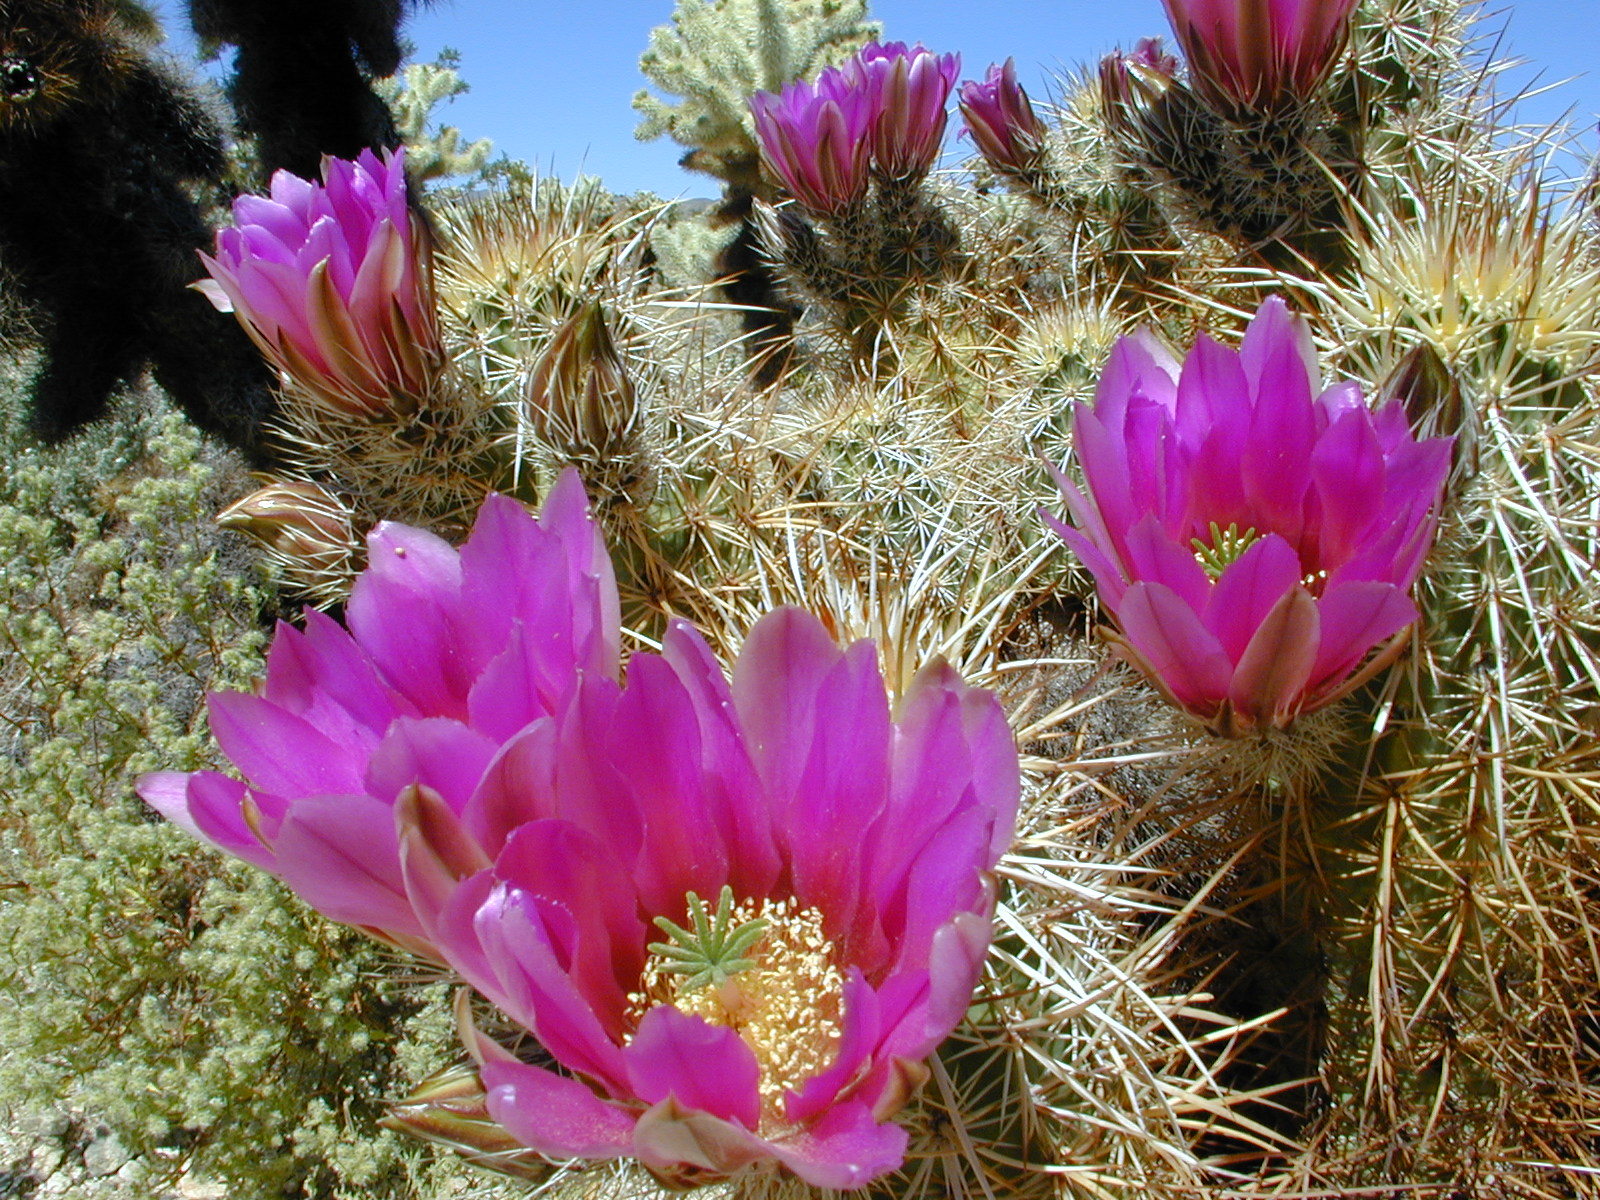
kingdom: Plantae
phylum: Tracheophyta
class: Magnoliopsida
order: Caryophyllales
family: Cactaceae
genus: Echinocereus
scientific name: Echinocereus engelmannii
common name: Engelmann's hedgehog cactus
